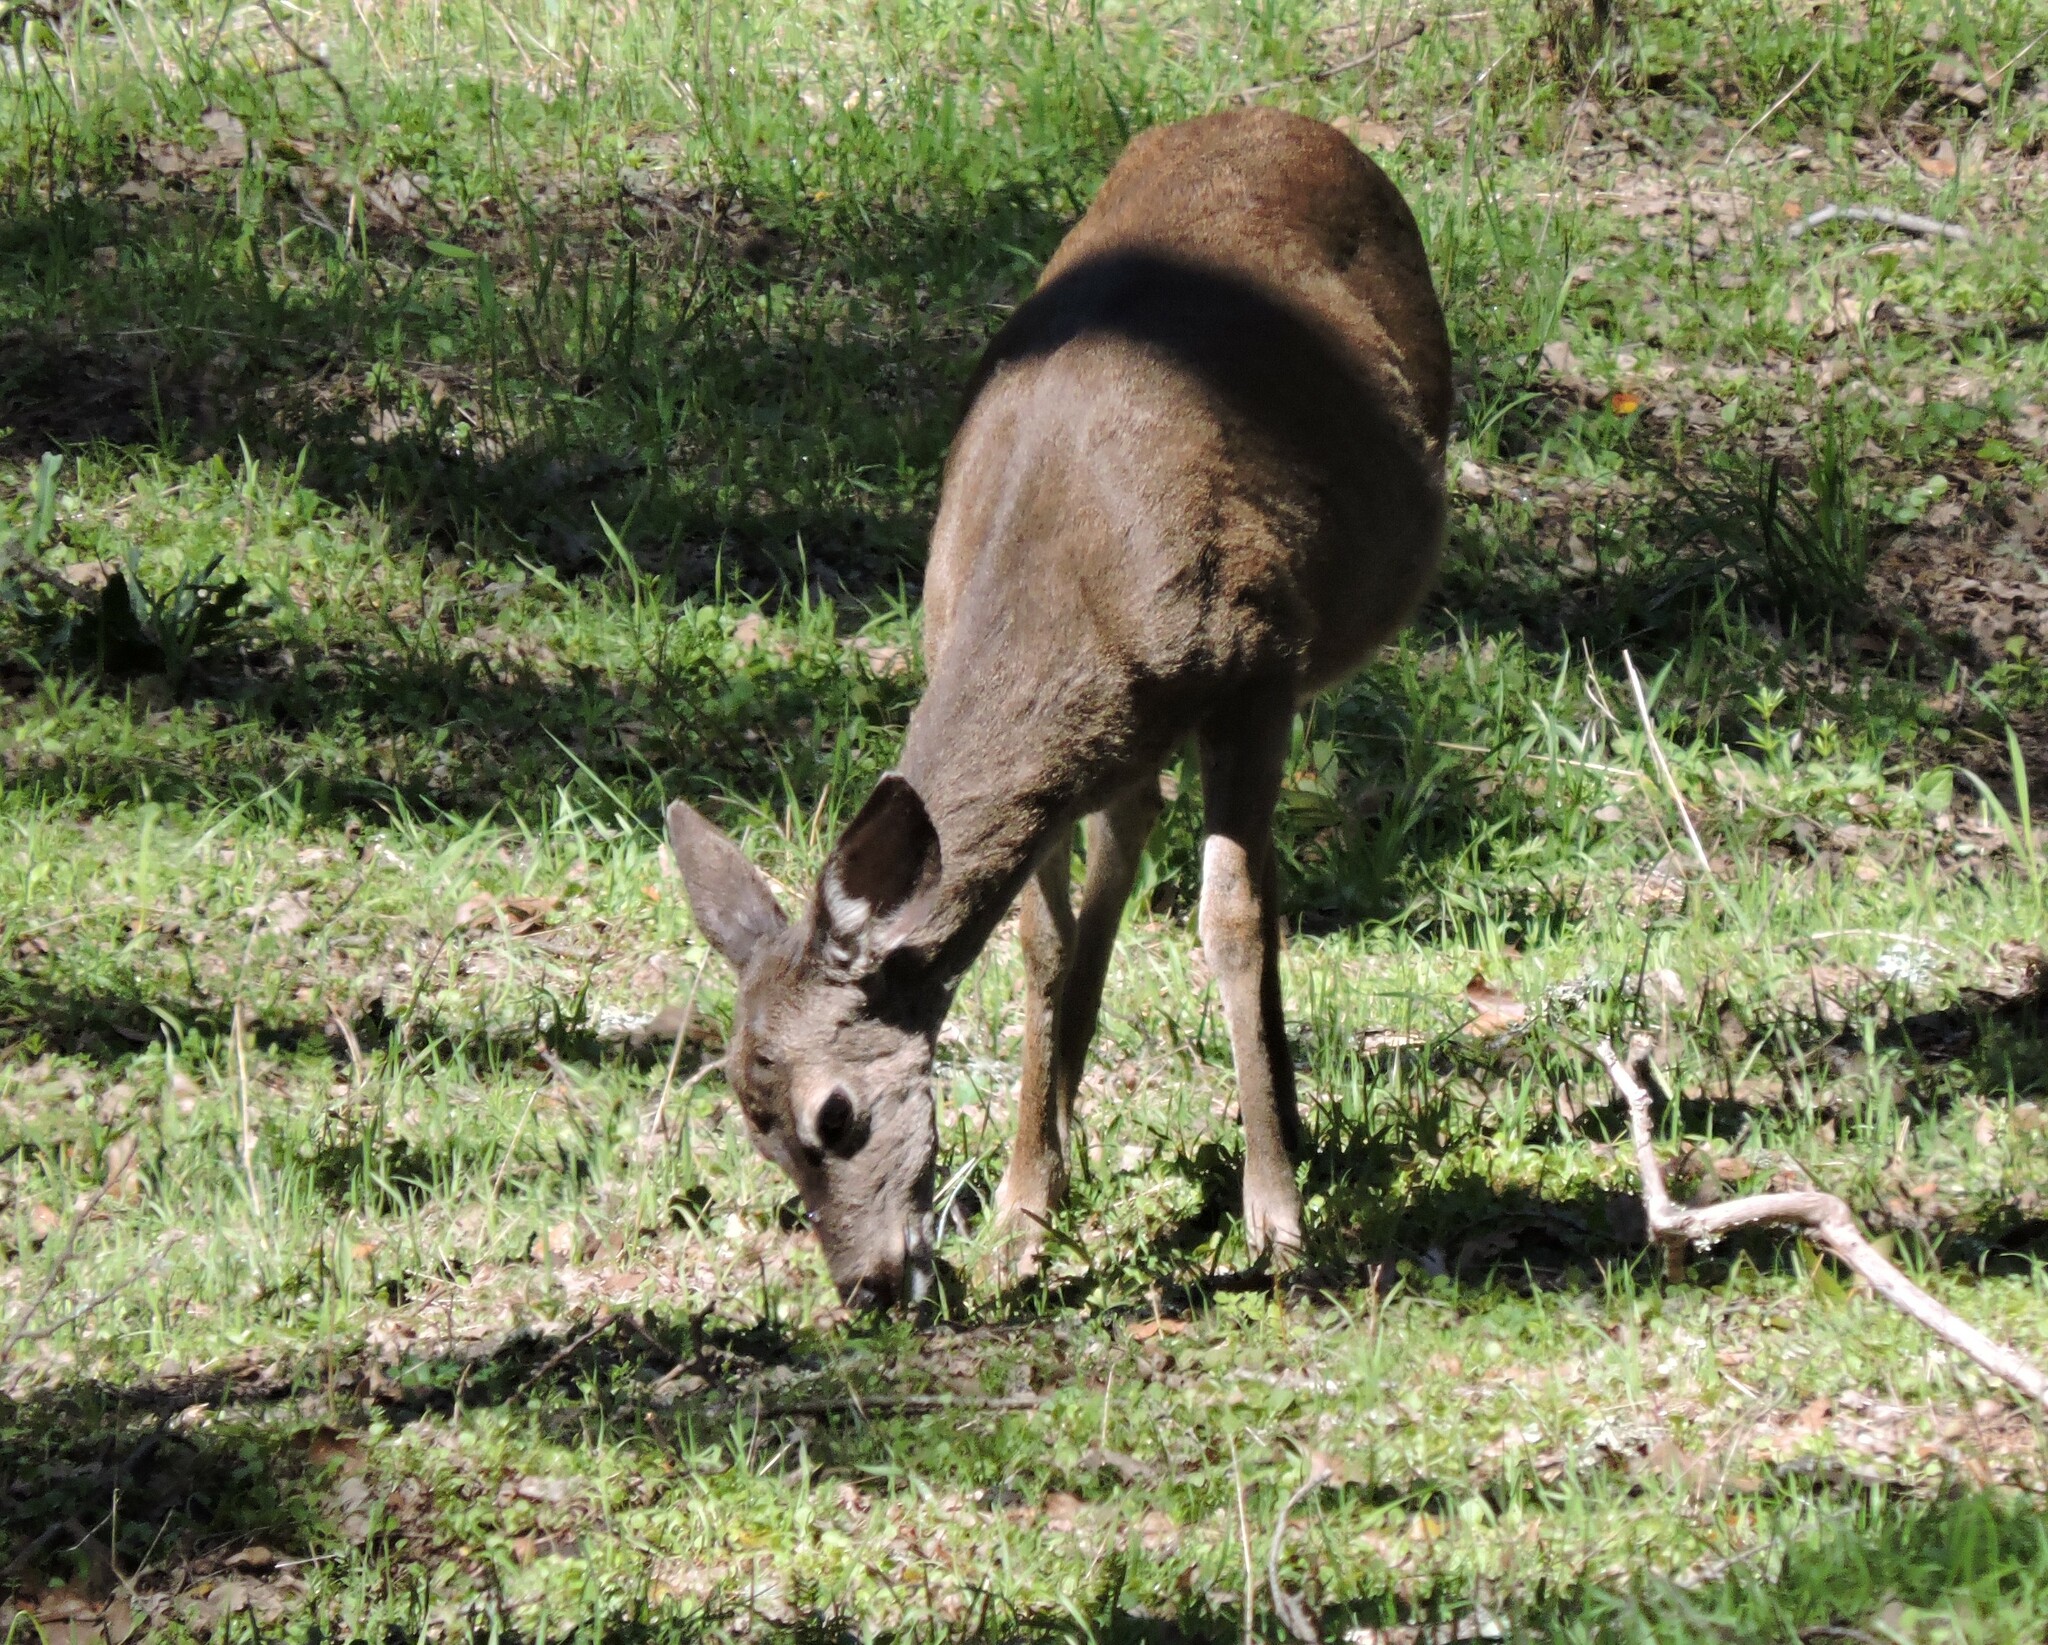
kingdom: Animalia
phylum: Chordata
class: Mammalia
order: Artiodactyla
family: Cervidae
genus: Odocoileus
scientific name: Odocoileus hemionus
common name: Mule deer
